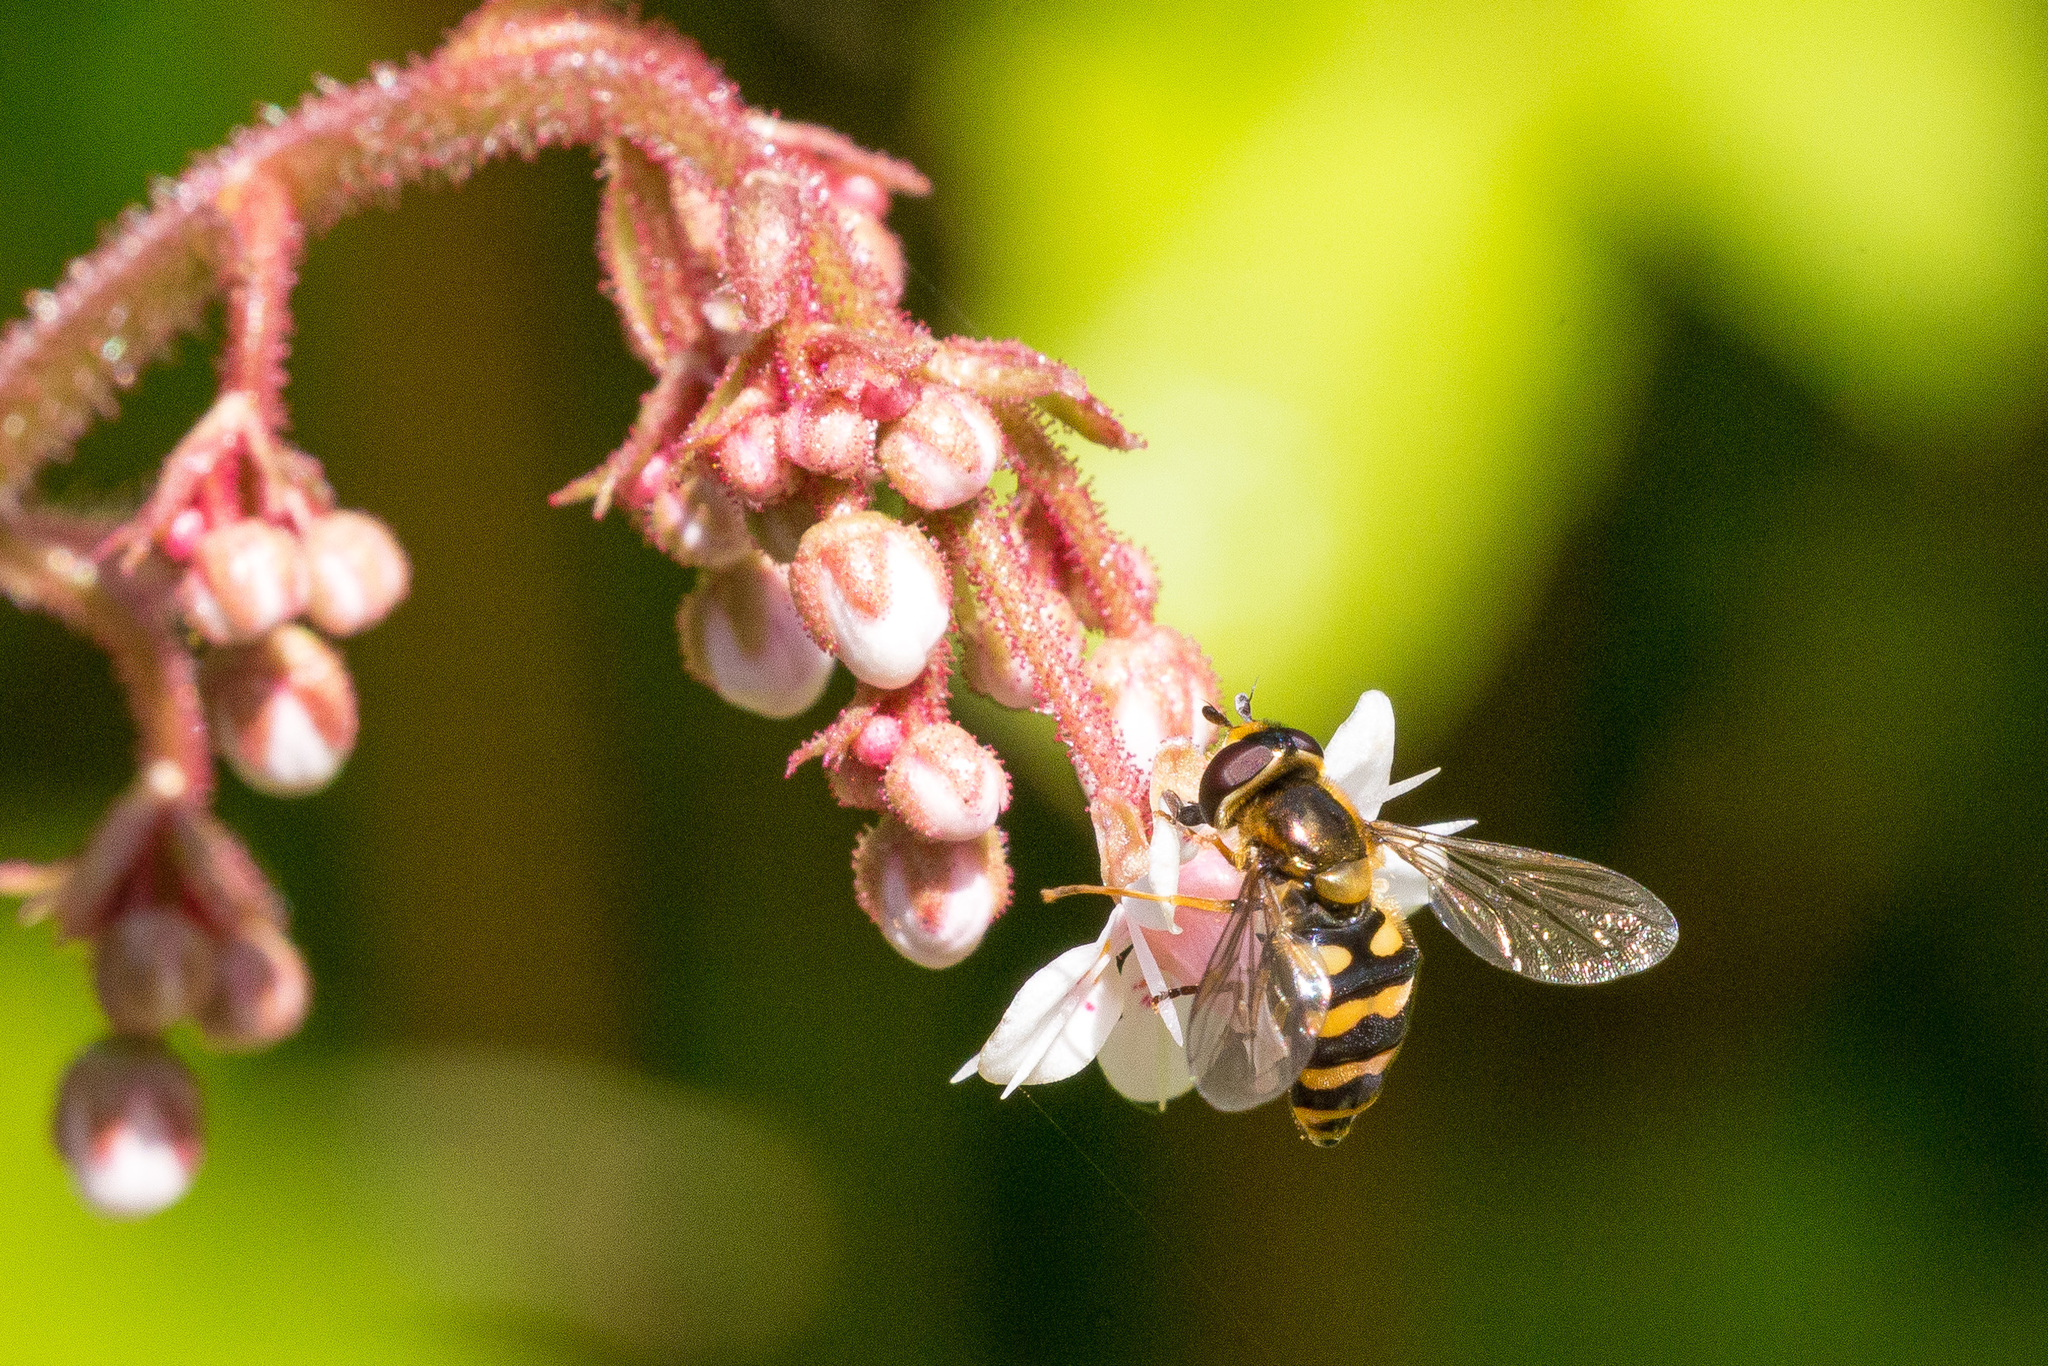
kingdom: Animalia
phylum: Arthropoda
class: Insecta
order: Diptera
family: Syrphidae
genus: Eupeodes
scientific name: Eupeodes latifasciatus
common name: Variable aphideater
